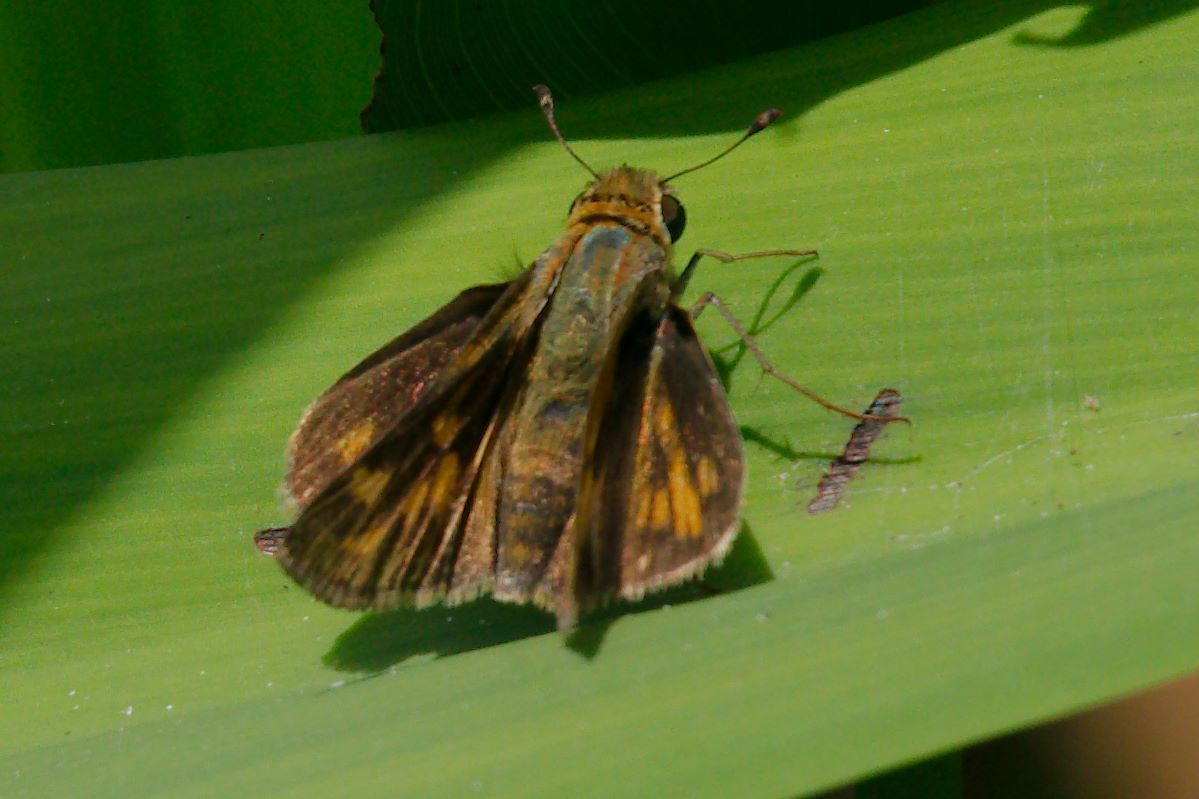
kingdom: Animalia
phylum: Arthropoda
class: Insecta
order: Lepidoptera
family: Hesperiidae
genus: Hylephila
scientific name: Hylephila phyleus
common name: Fiery skipper
